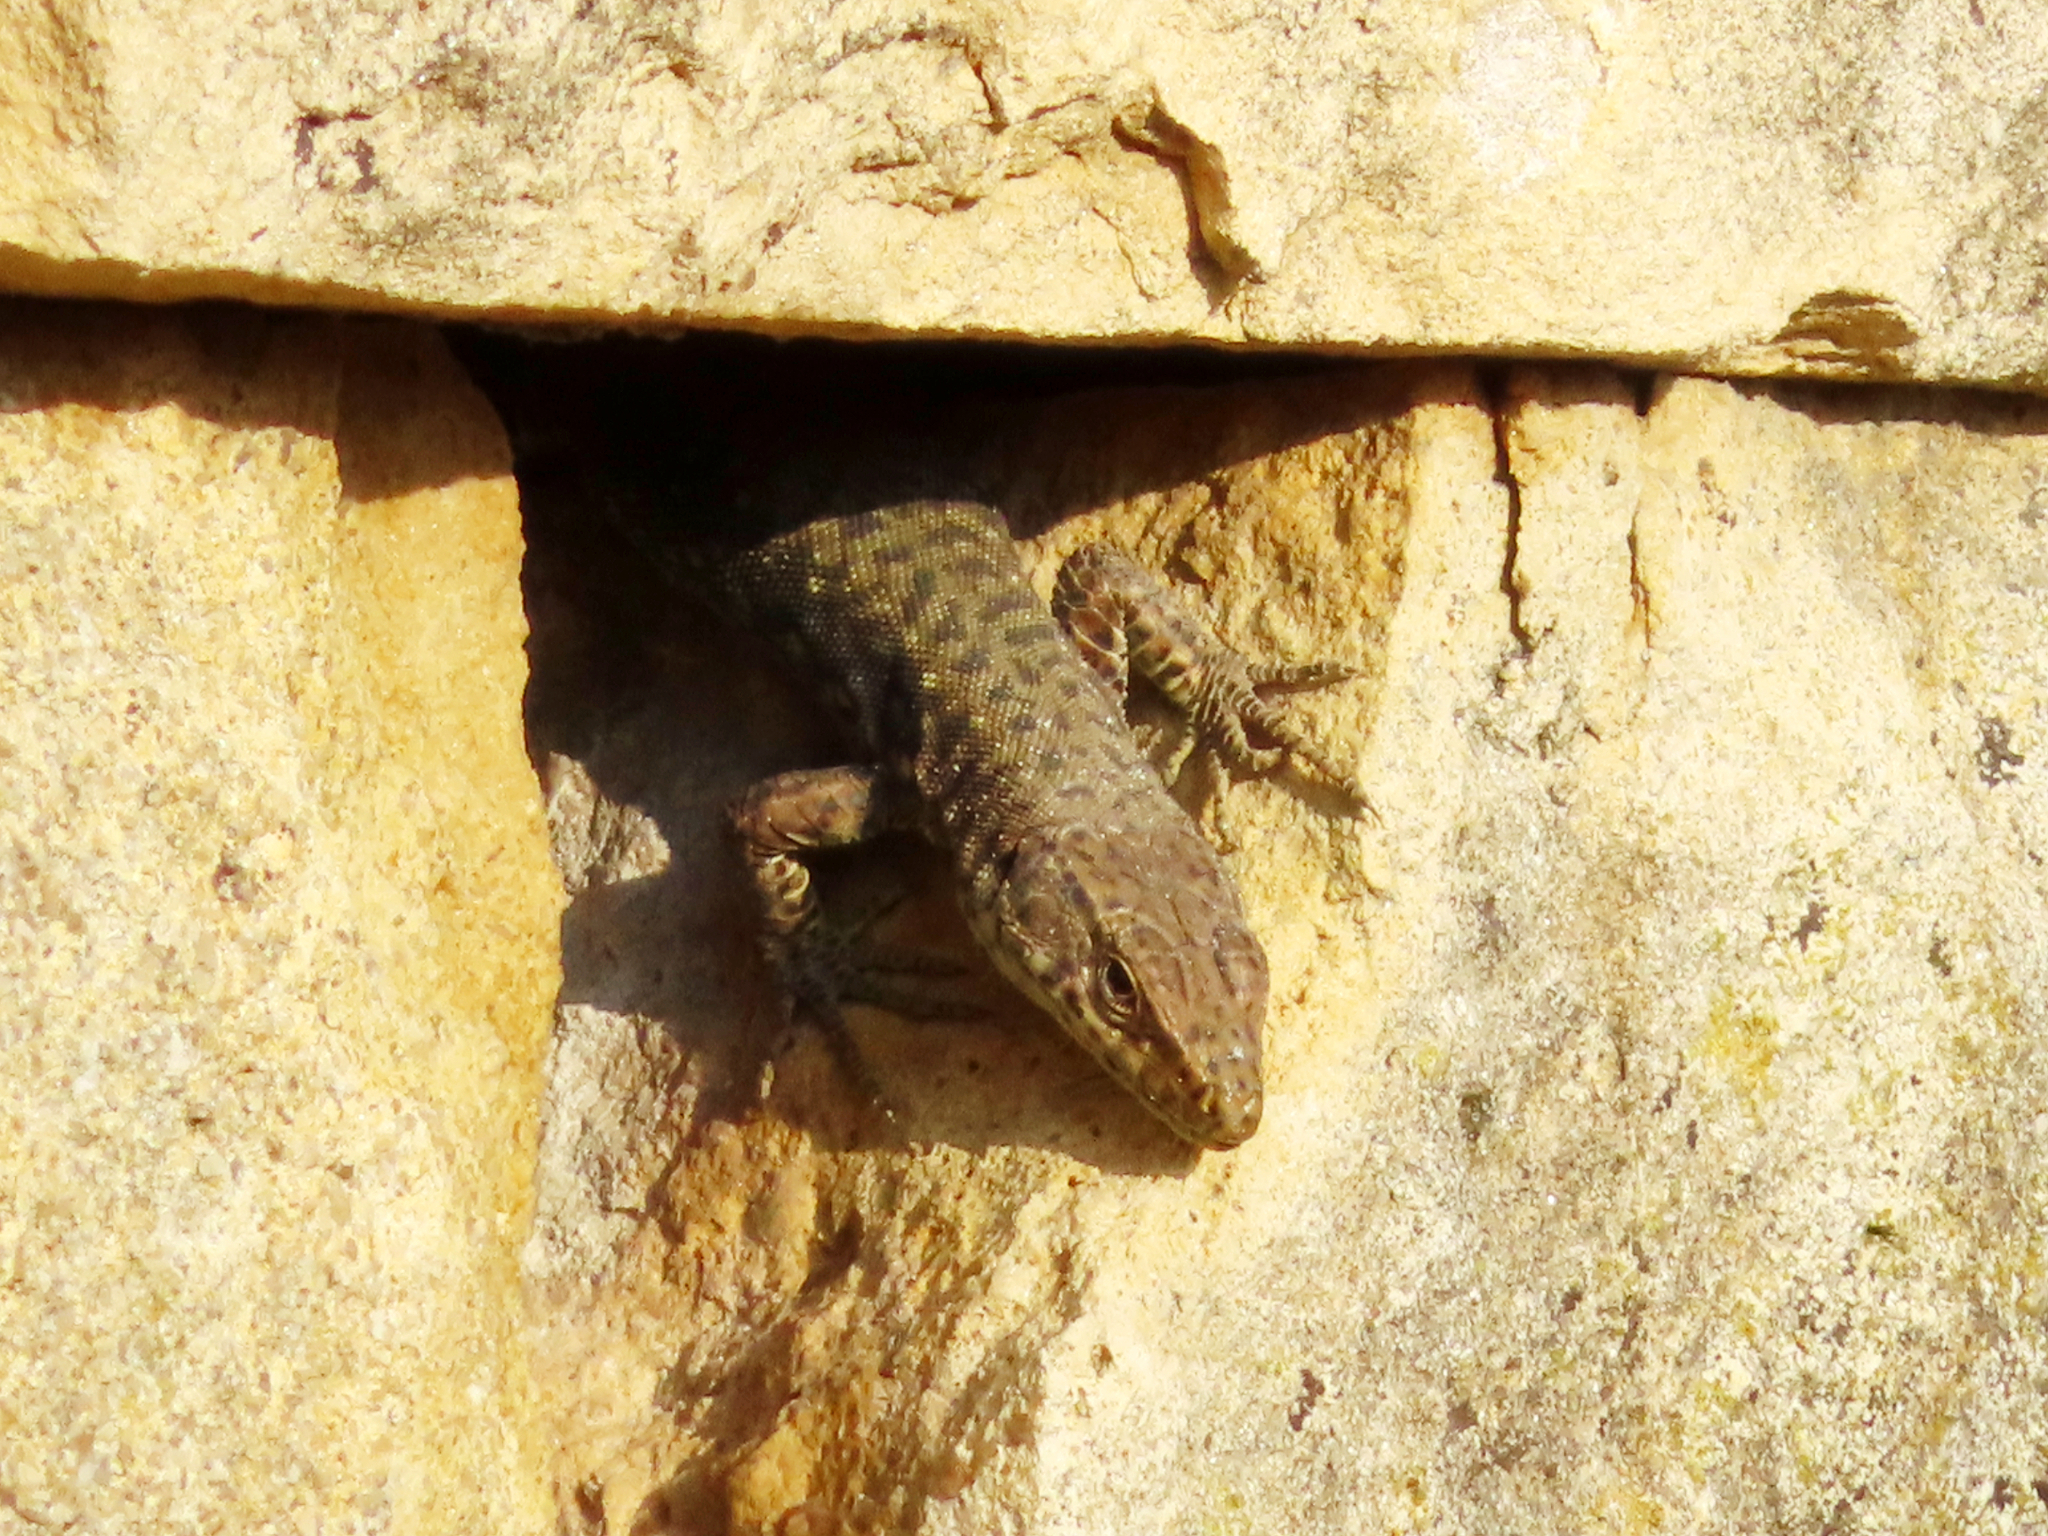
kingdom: Animalia
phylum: Chordata
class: Squamata
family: Lacertidae
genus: Darevskia
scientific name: Darevskia rudis
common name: Spiny-tailed lizard
